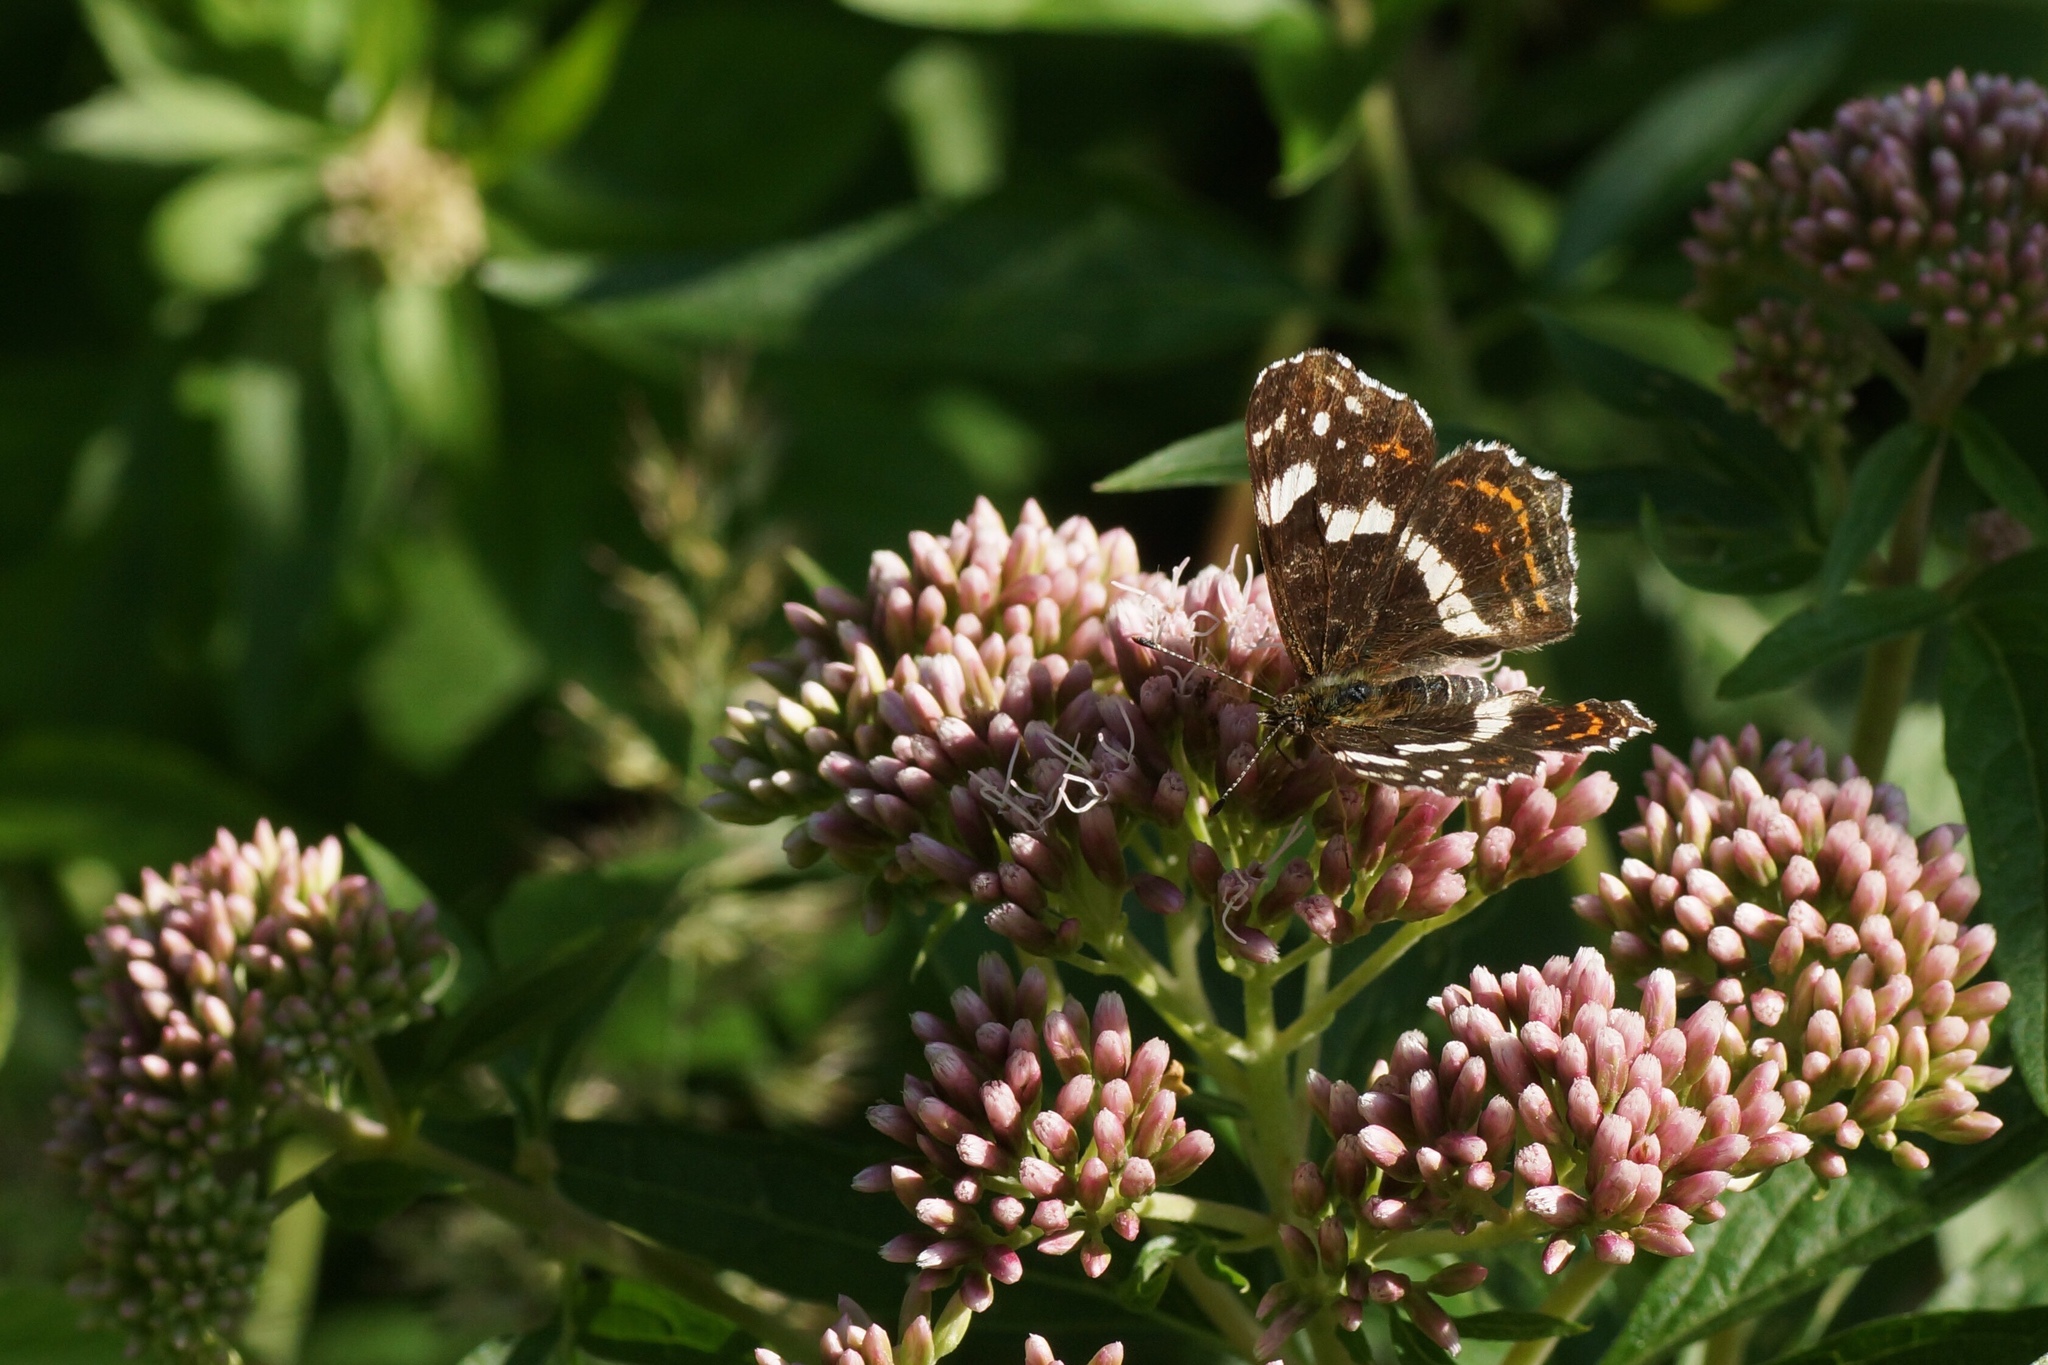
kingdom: Animalia
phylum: Arthropoda
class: Insecta
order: Lepidoptera
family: Nymphalidae
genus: Araschnia
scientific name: Araschnia levana
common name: Map butterfly
